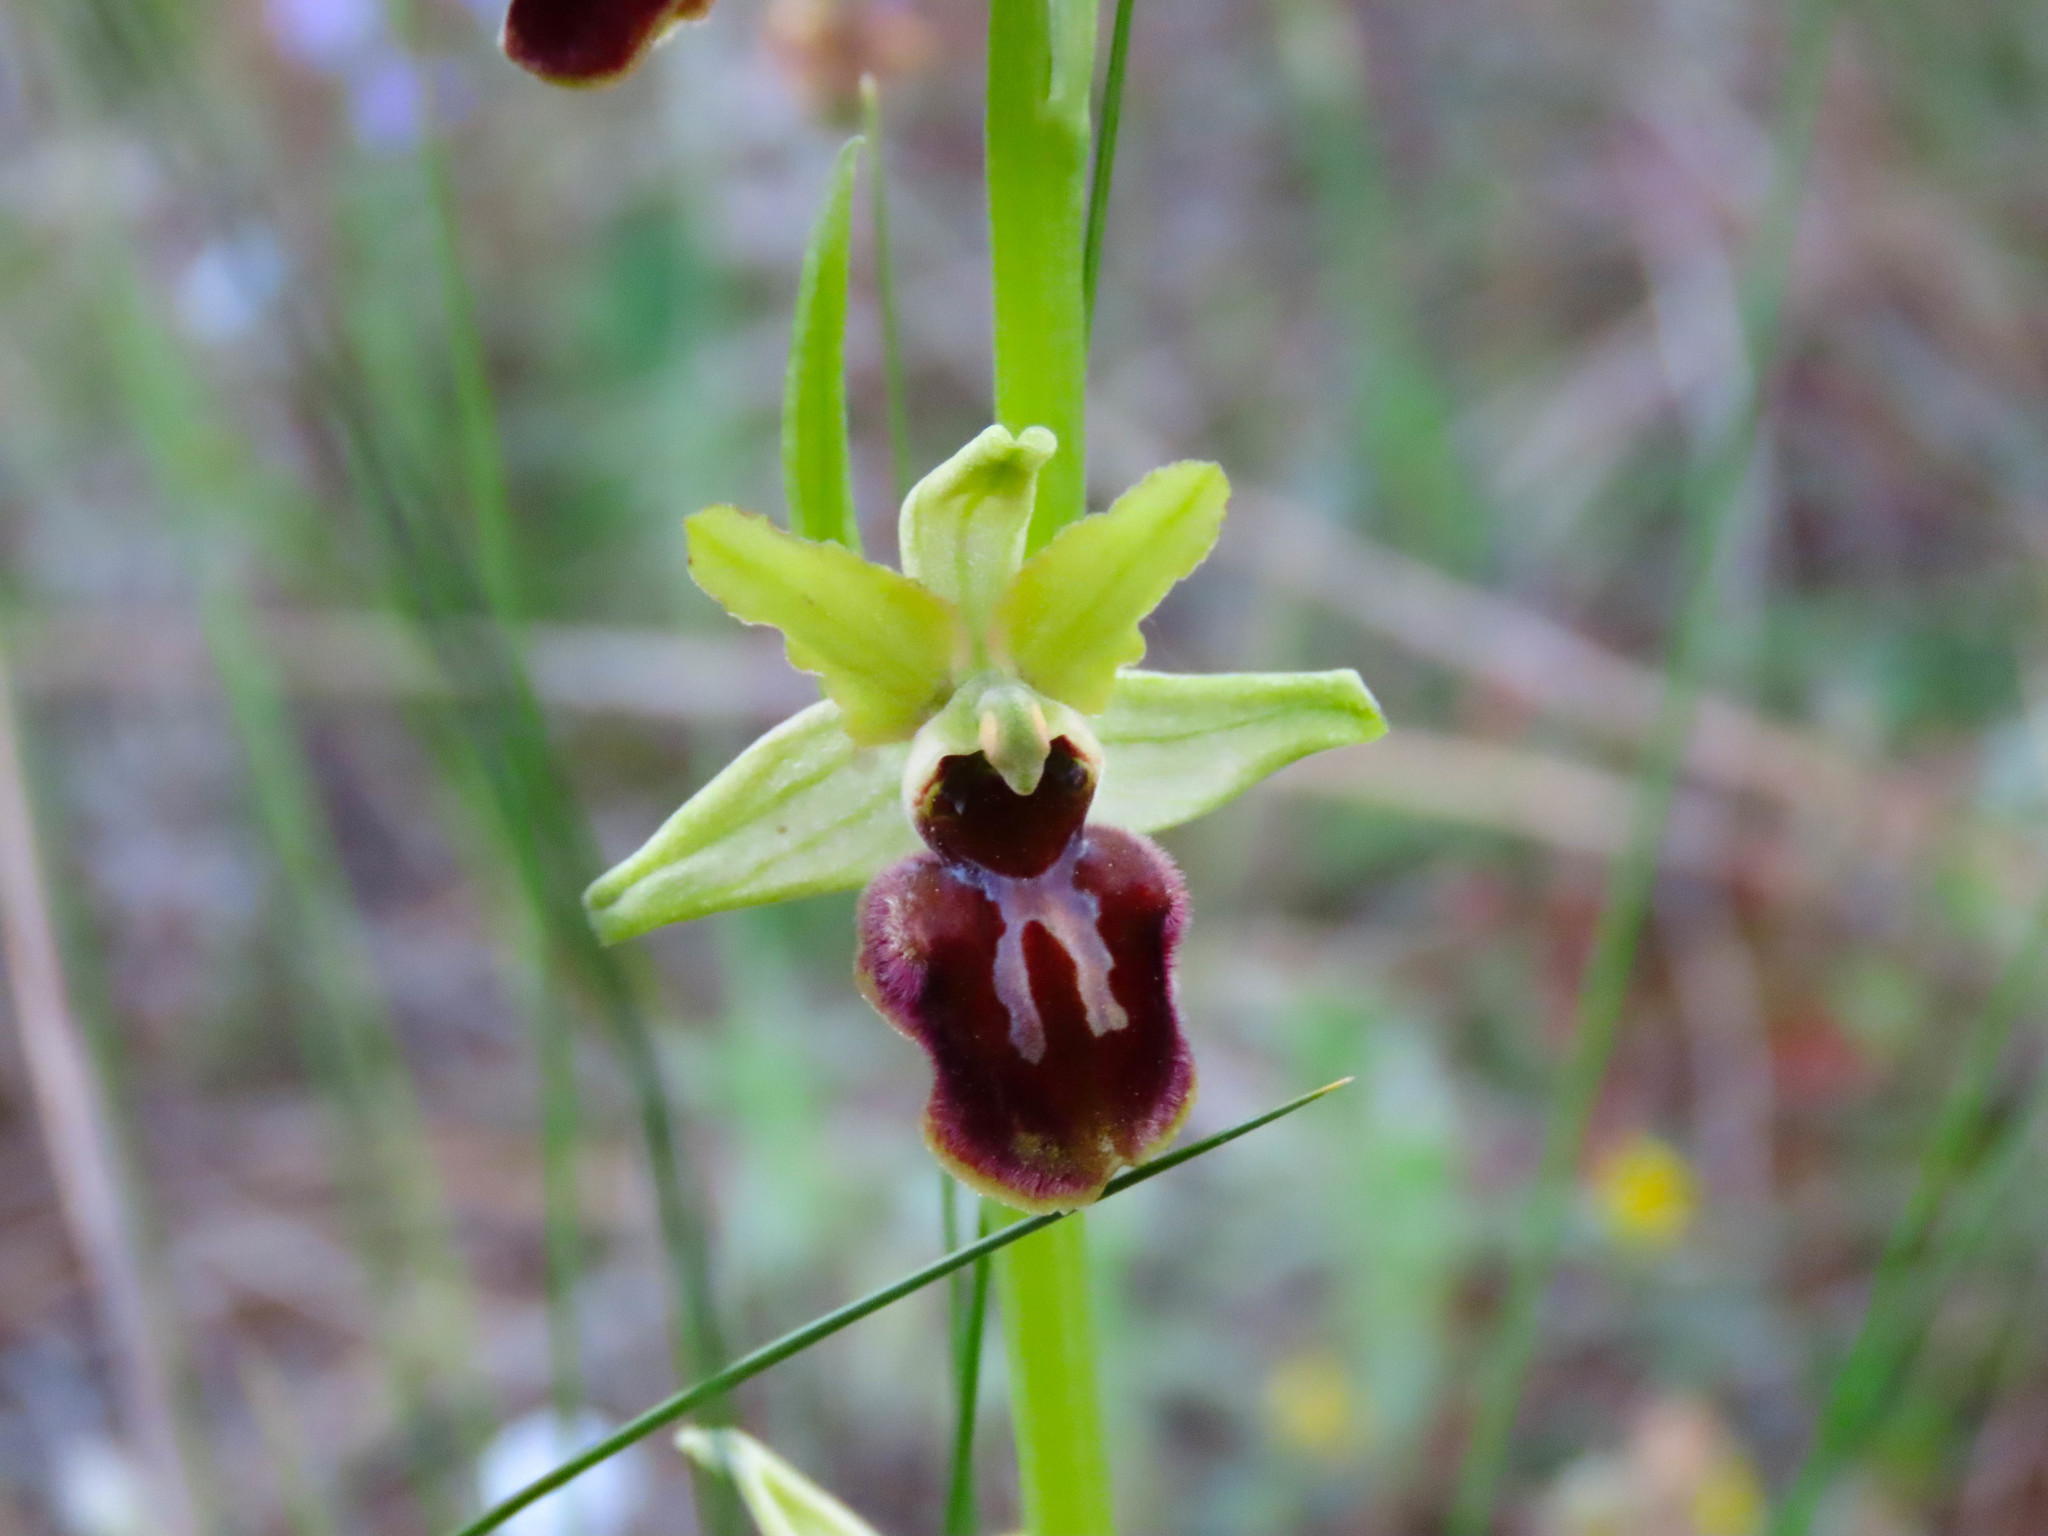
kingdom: Plantae
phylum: Tracheophyta
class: Liliopsida
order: Asparagales
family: Orchidaceae
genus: Ophrys
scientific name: Ophrys sphegodes
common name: Early spider-orchid
